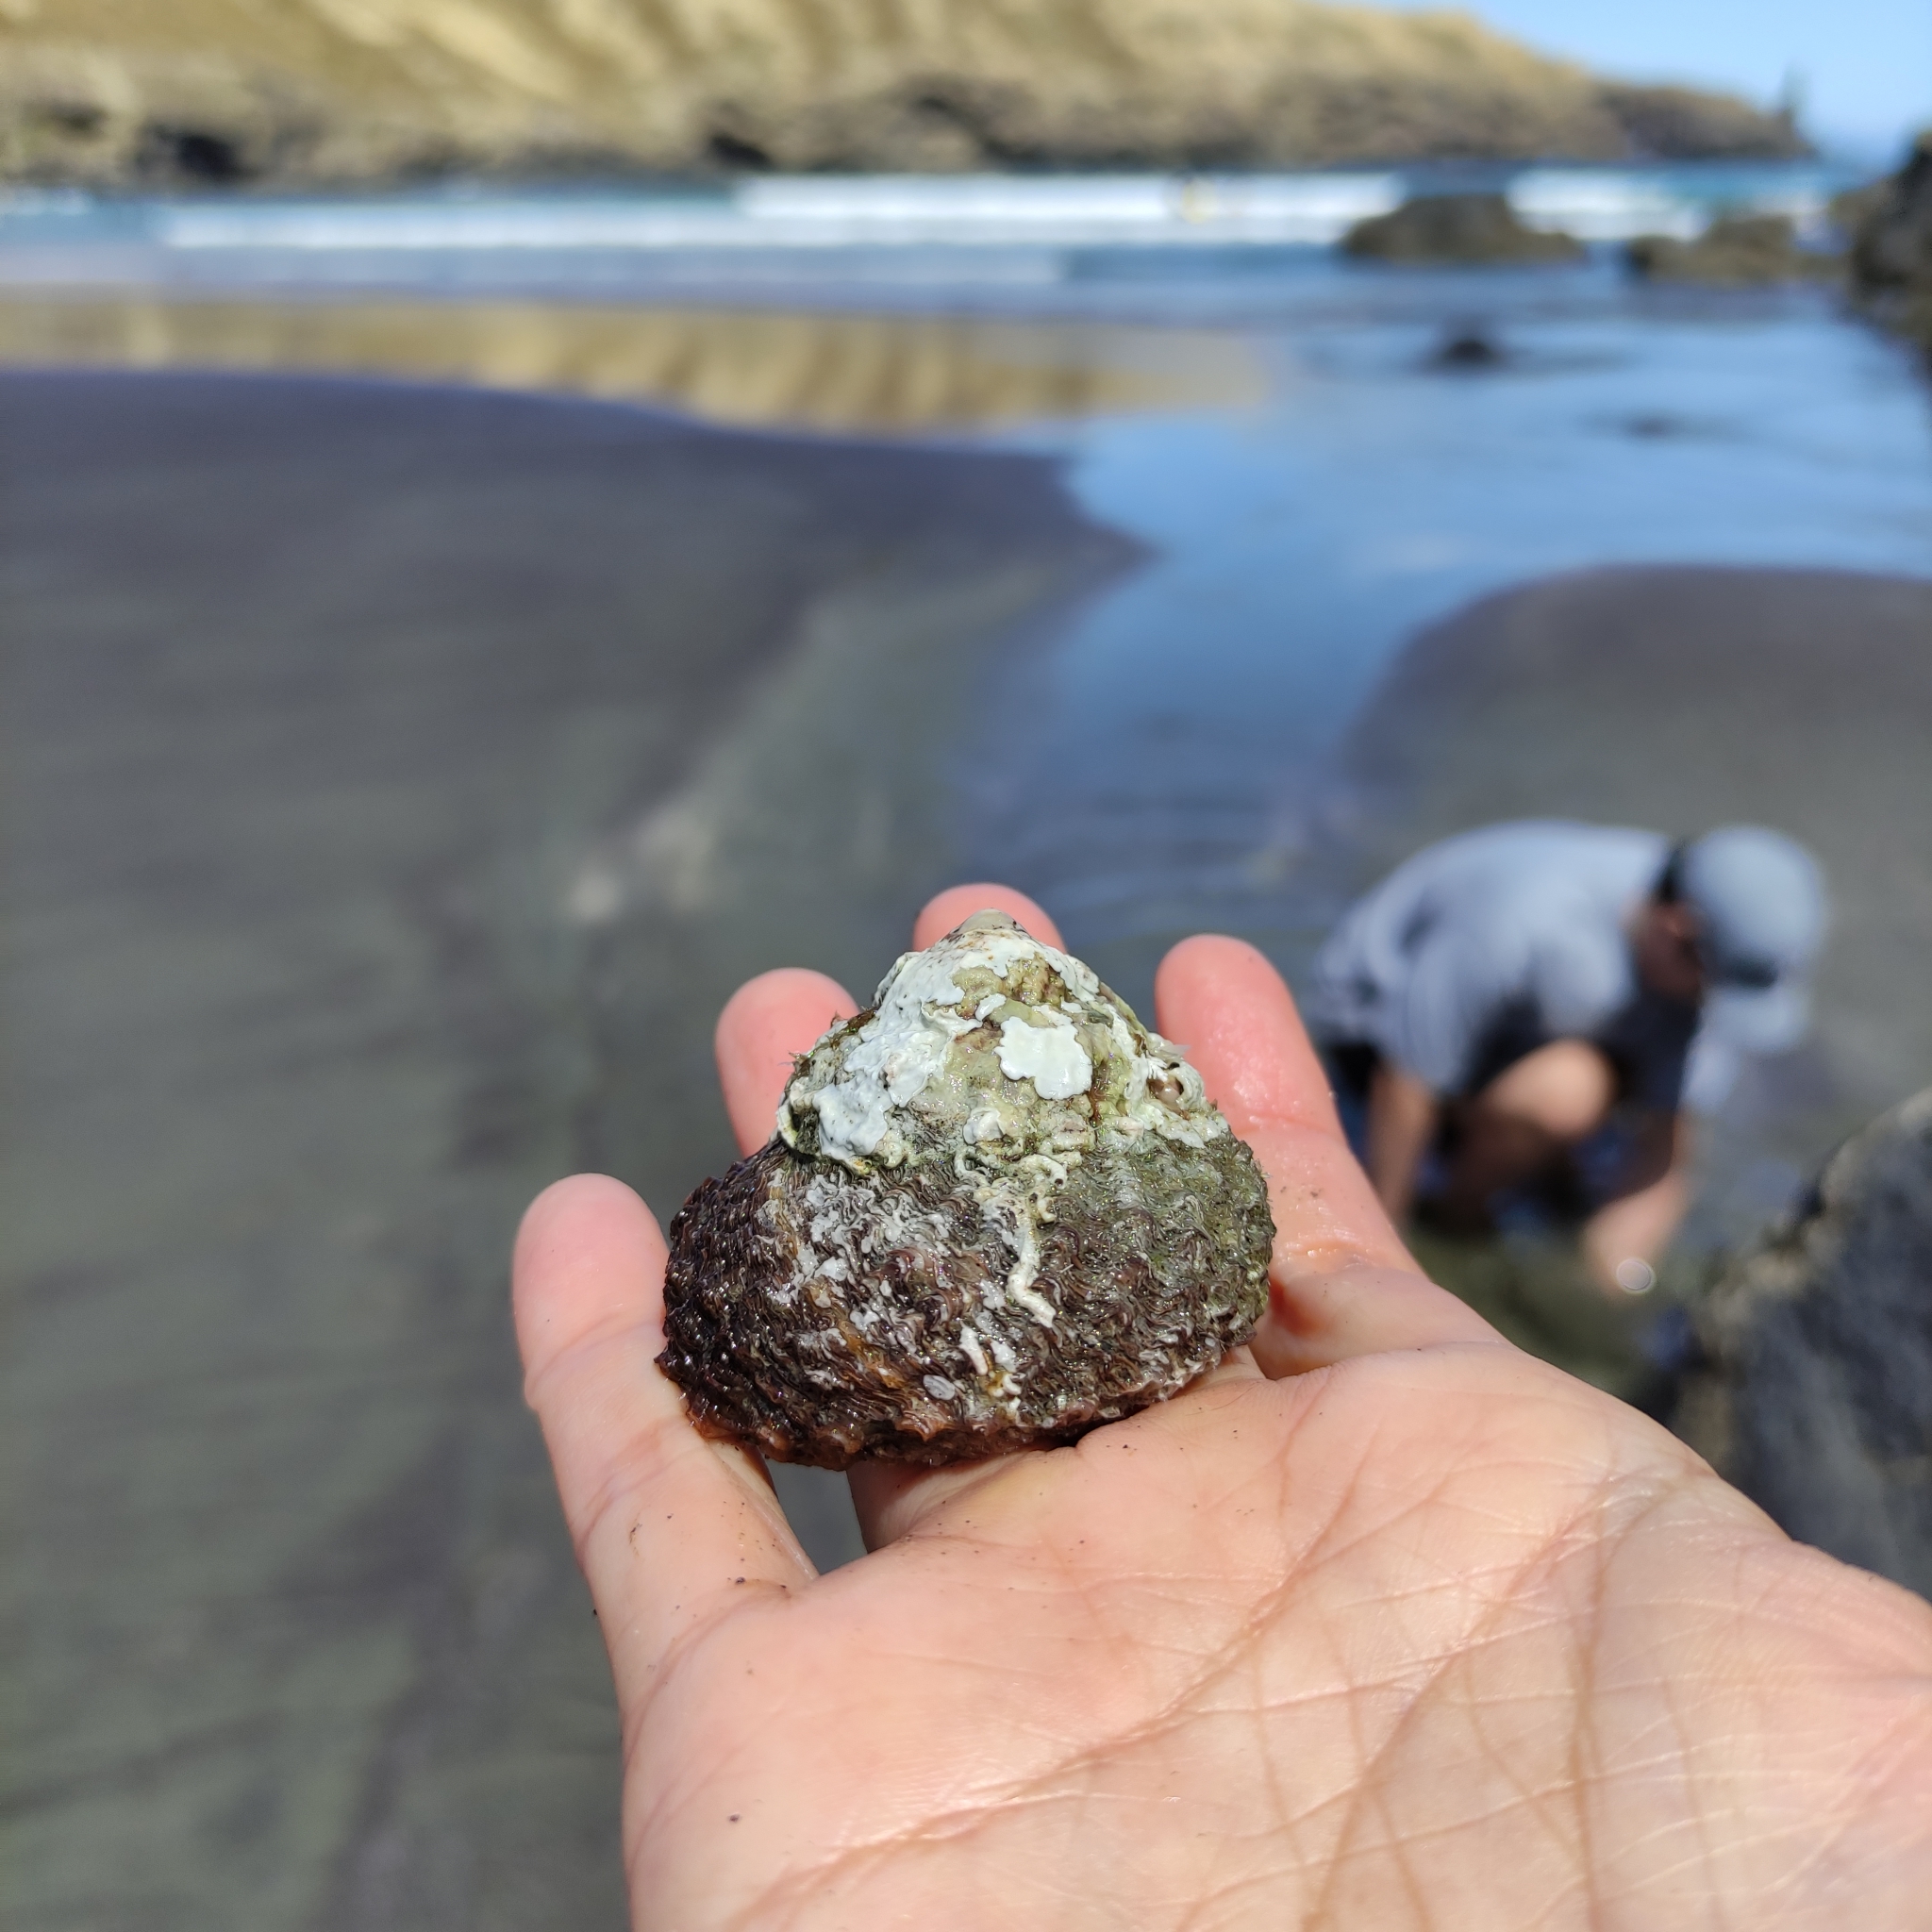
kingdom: Animalia
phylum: Mollusca
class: Gastropoda
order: Trochida
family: Turbinidae
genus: Cookia
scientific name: Cookia sulcata
